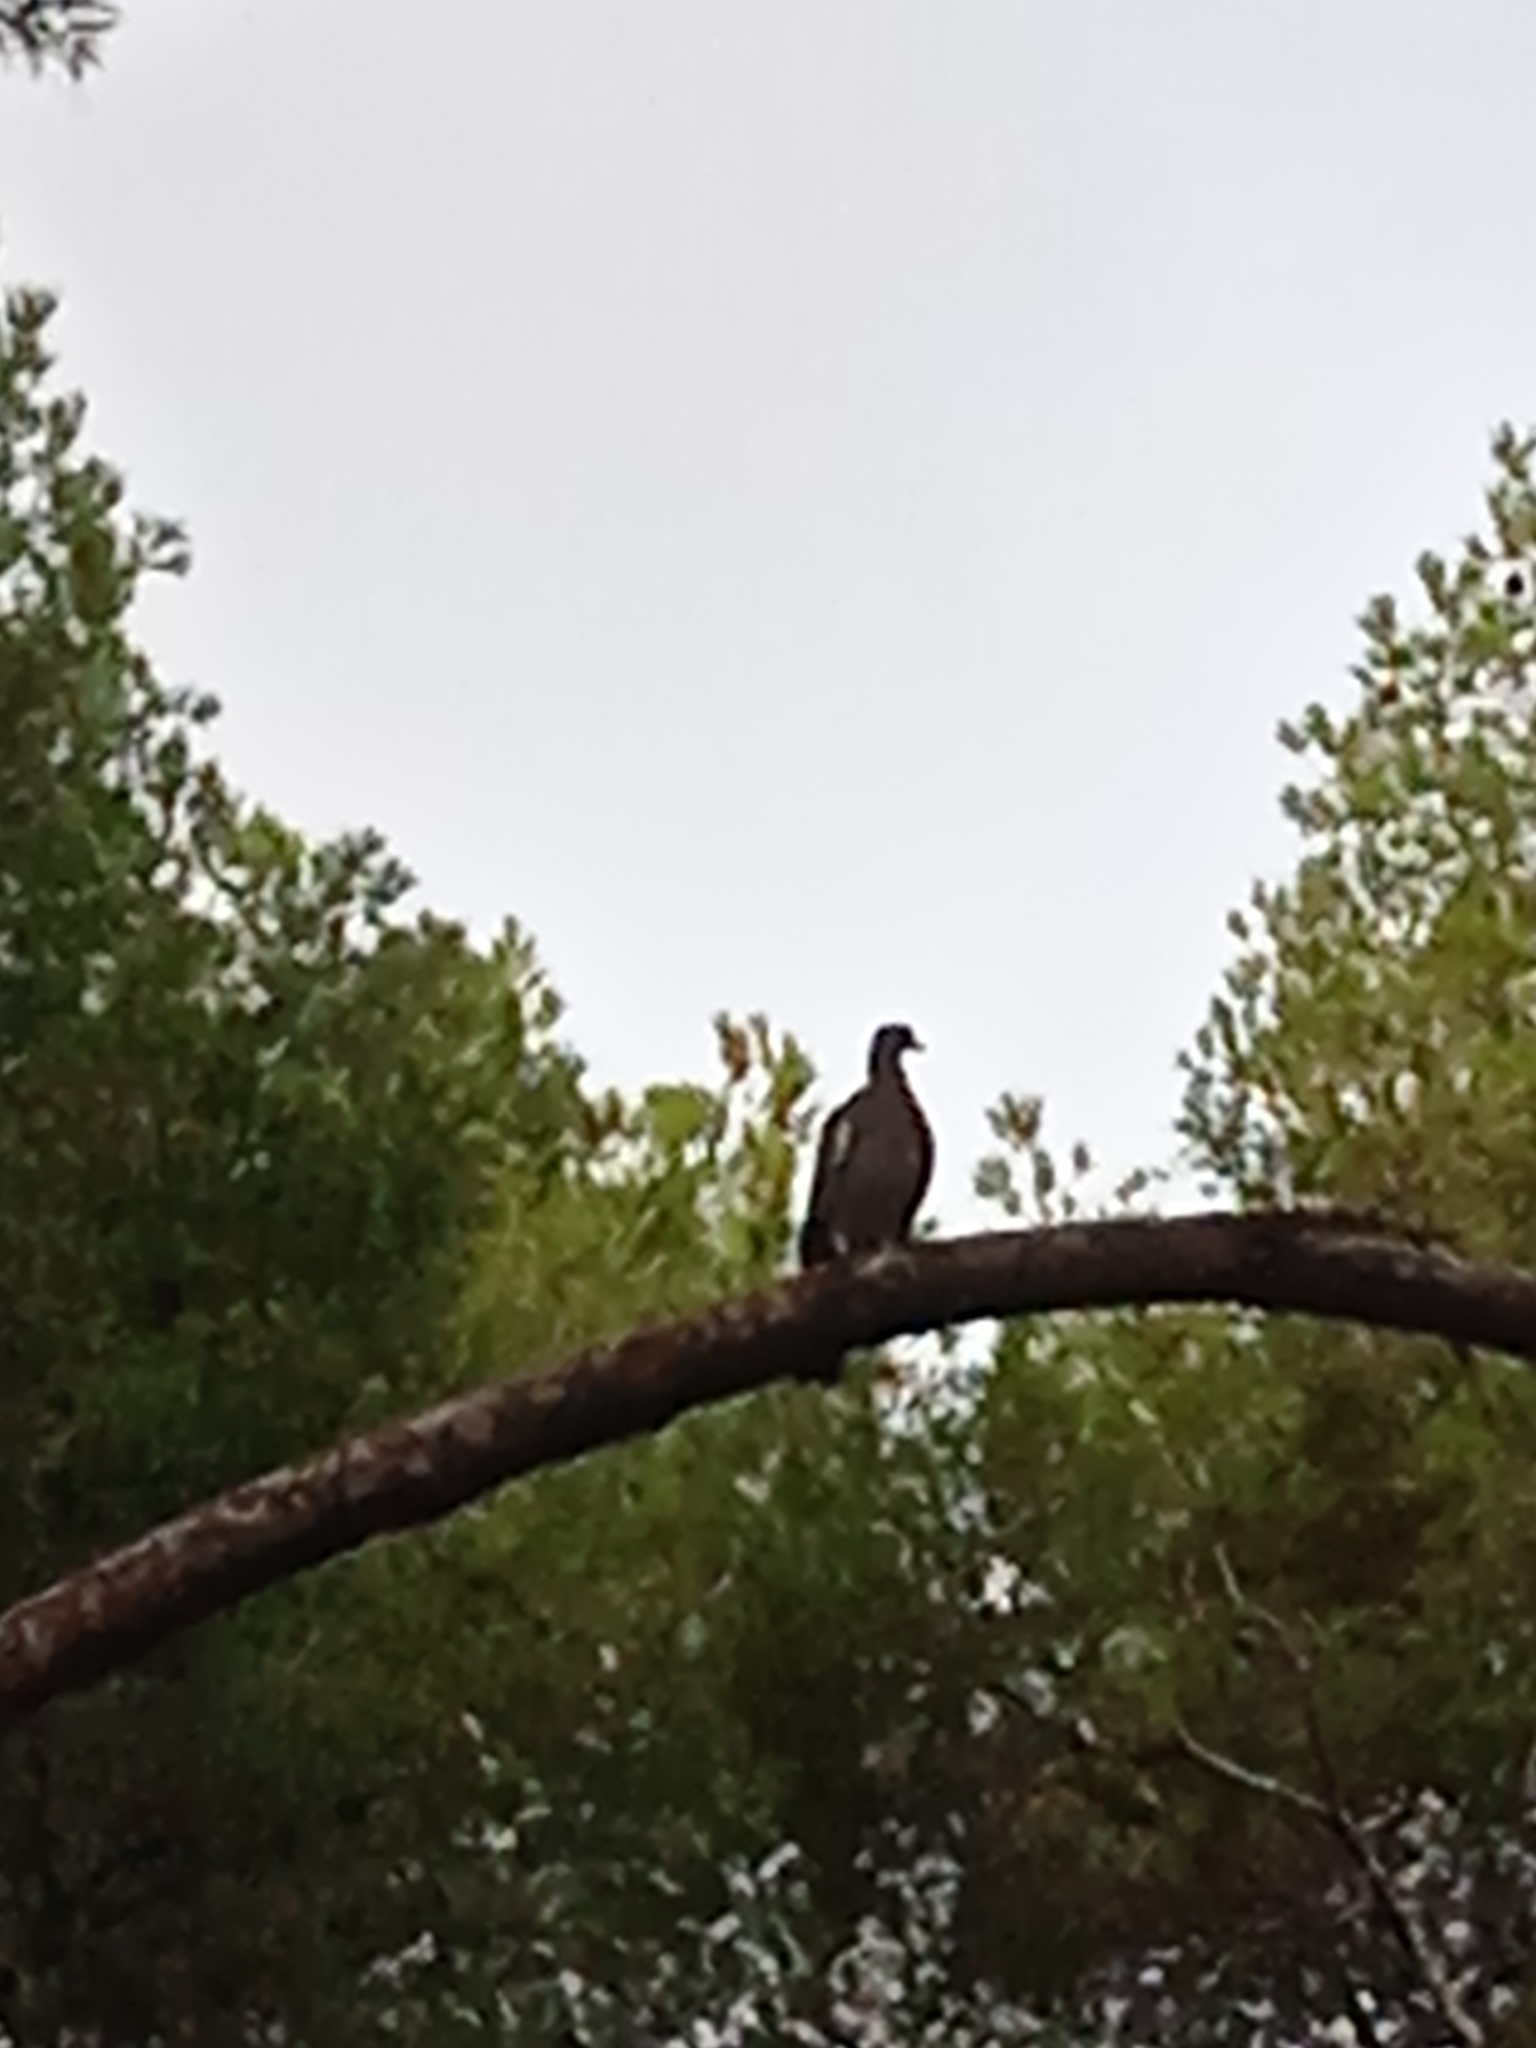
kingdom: Animalia
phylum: Chordata
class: Aves
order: Columbiformes
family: Columbidae
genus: Columba
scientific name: Columba palumbus
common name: Common wood pigeon
